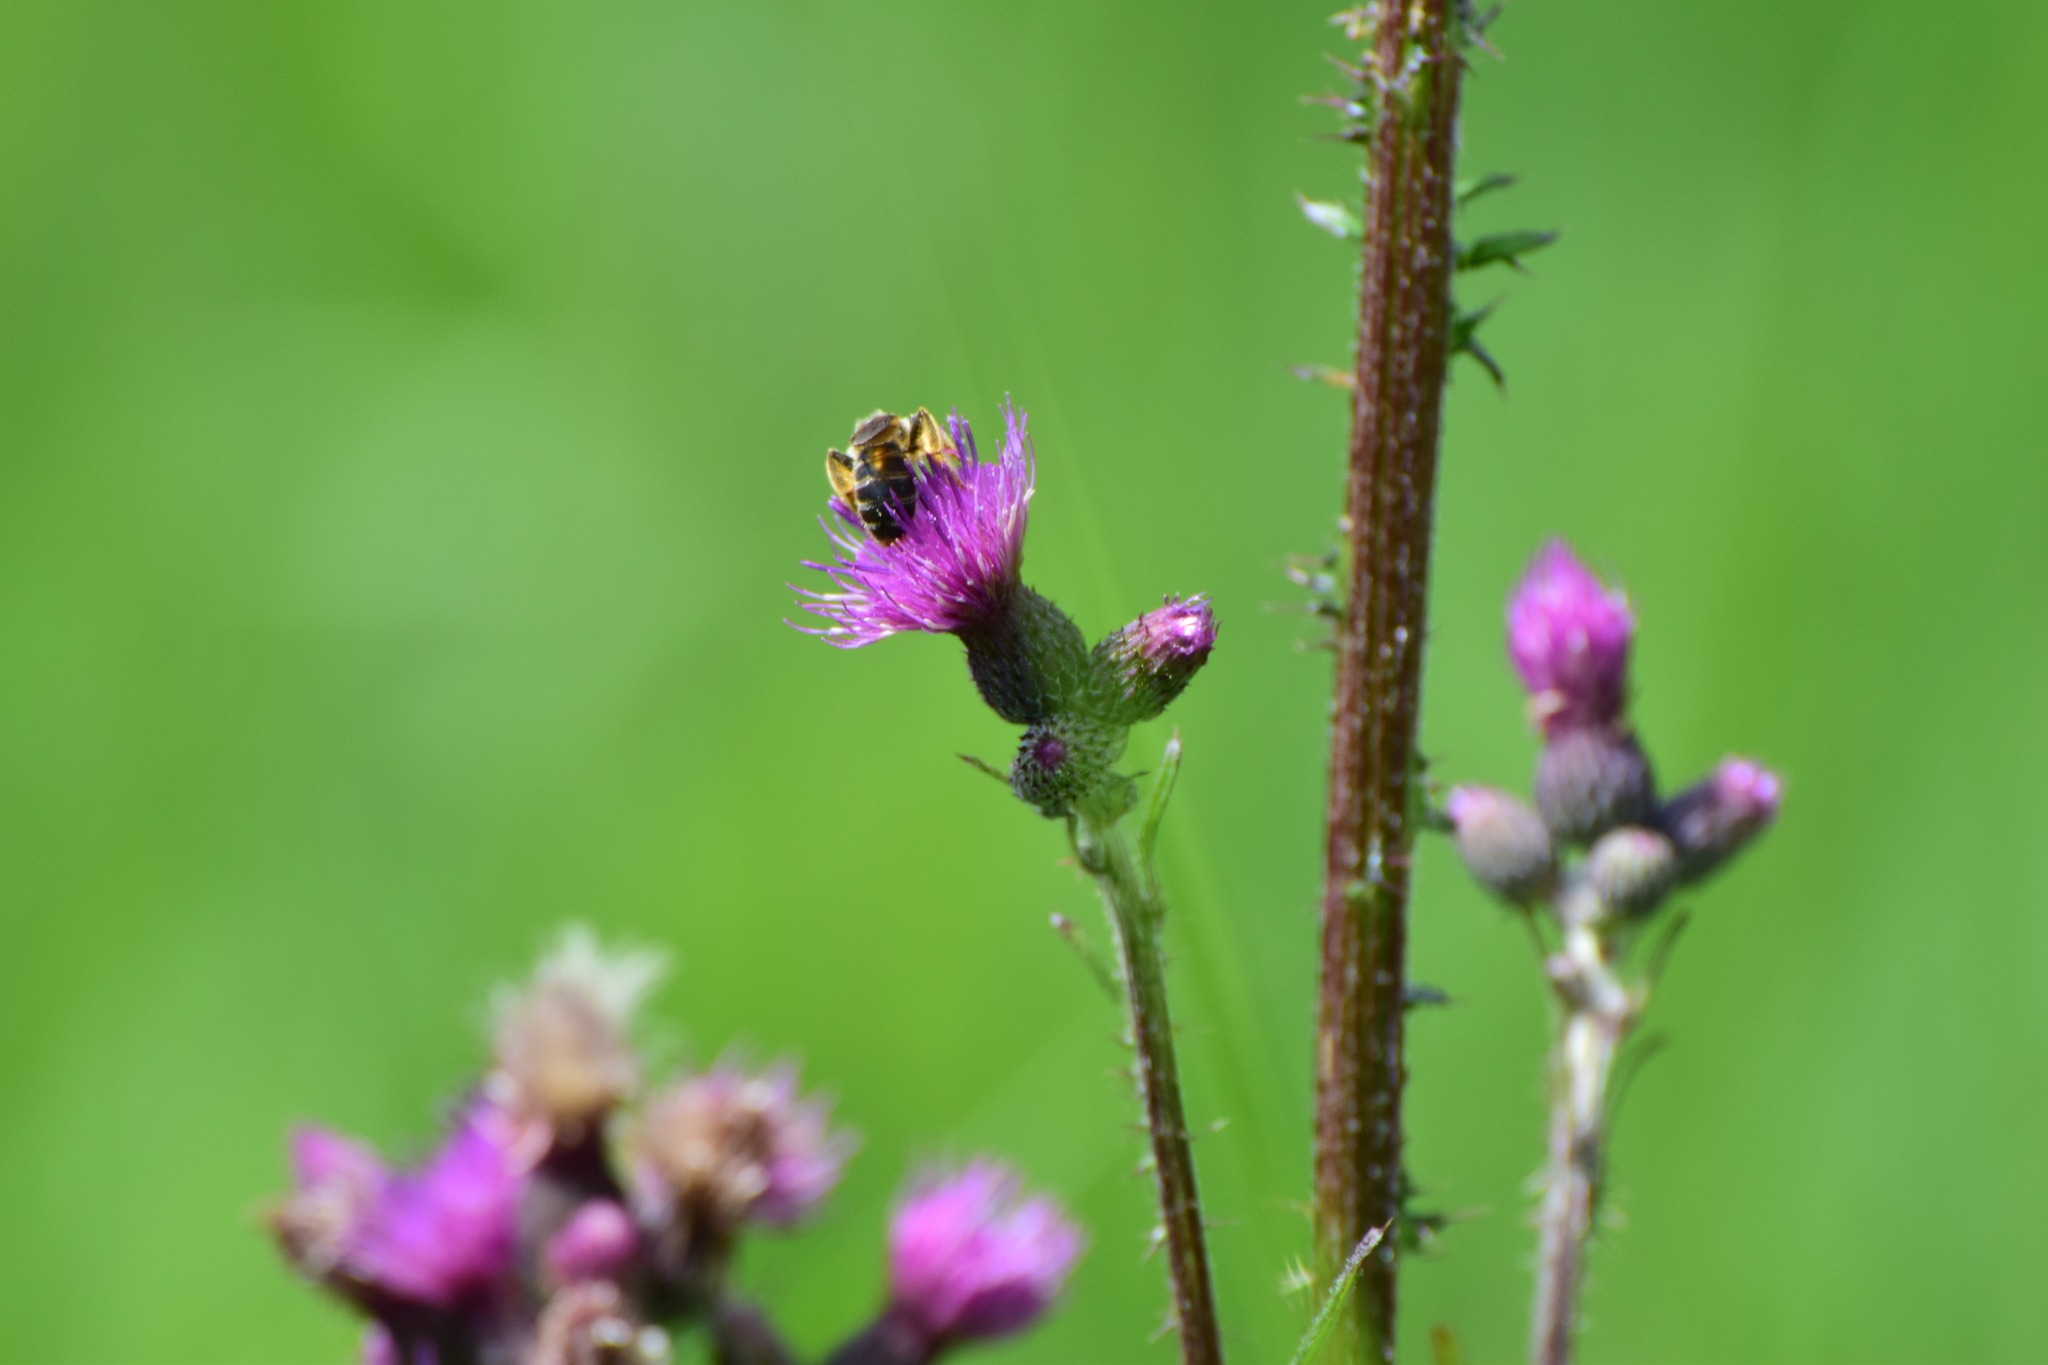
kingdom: Plantae
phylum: Tracheophyta
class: Magnoliopsida
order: Asterales
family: Asteraceae
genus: Cirsium
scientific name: Cirsium palustre
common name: Marsh thistle
